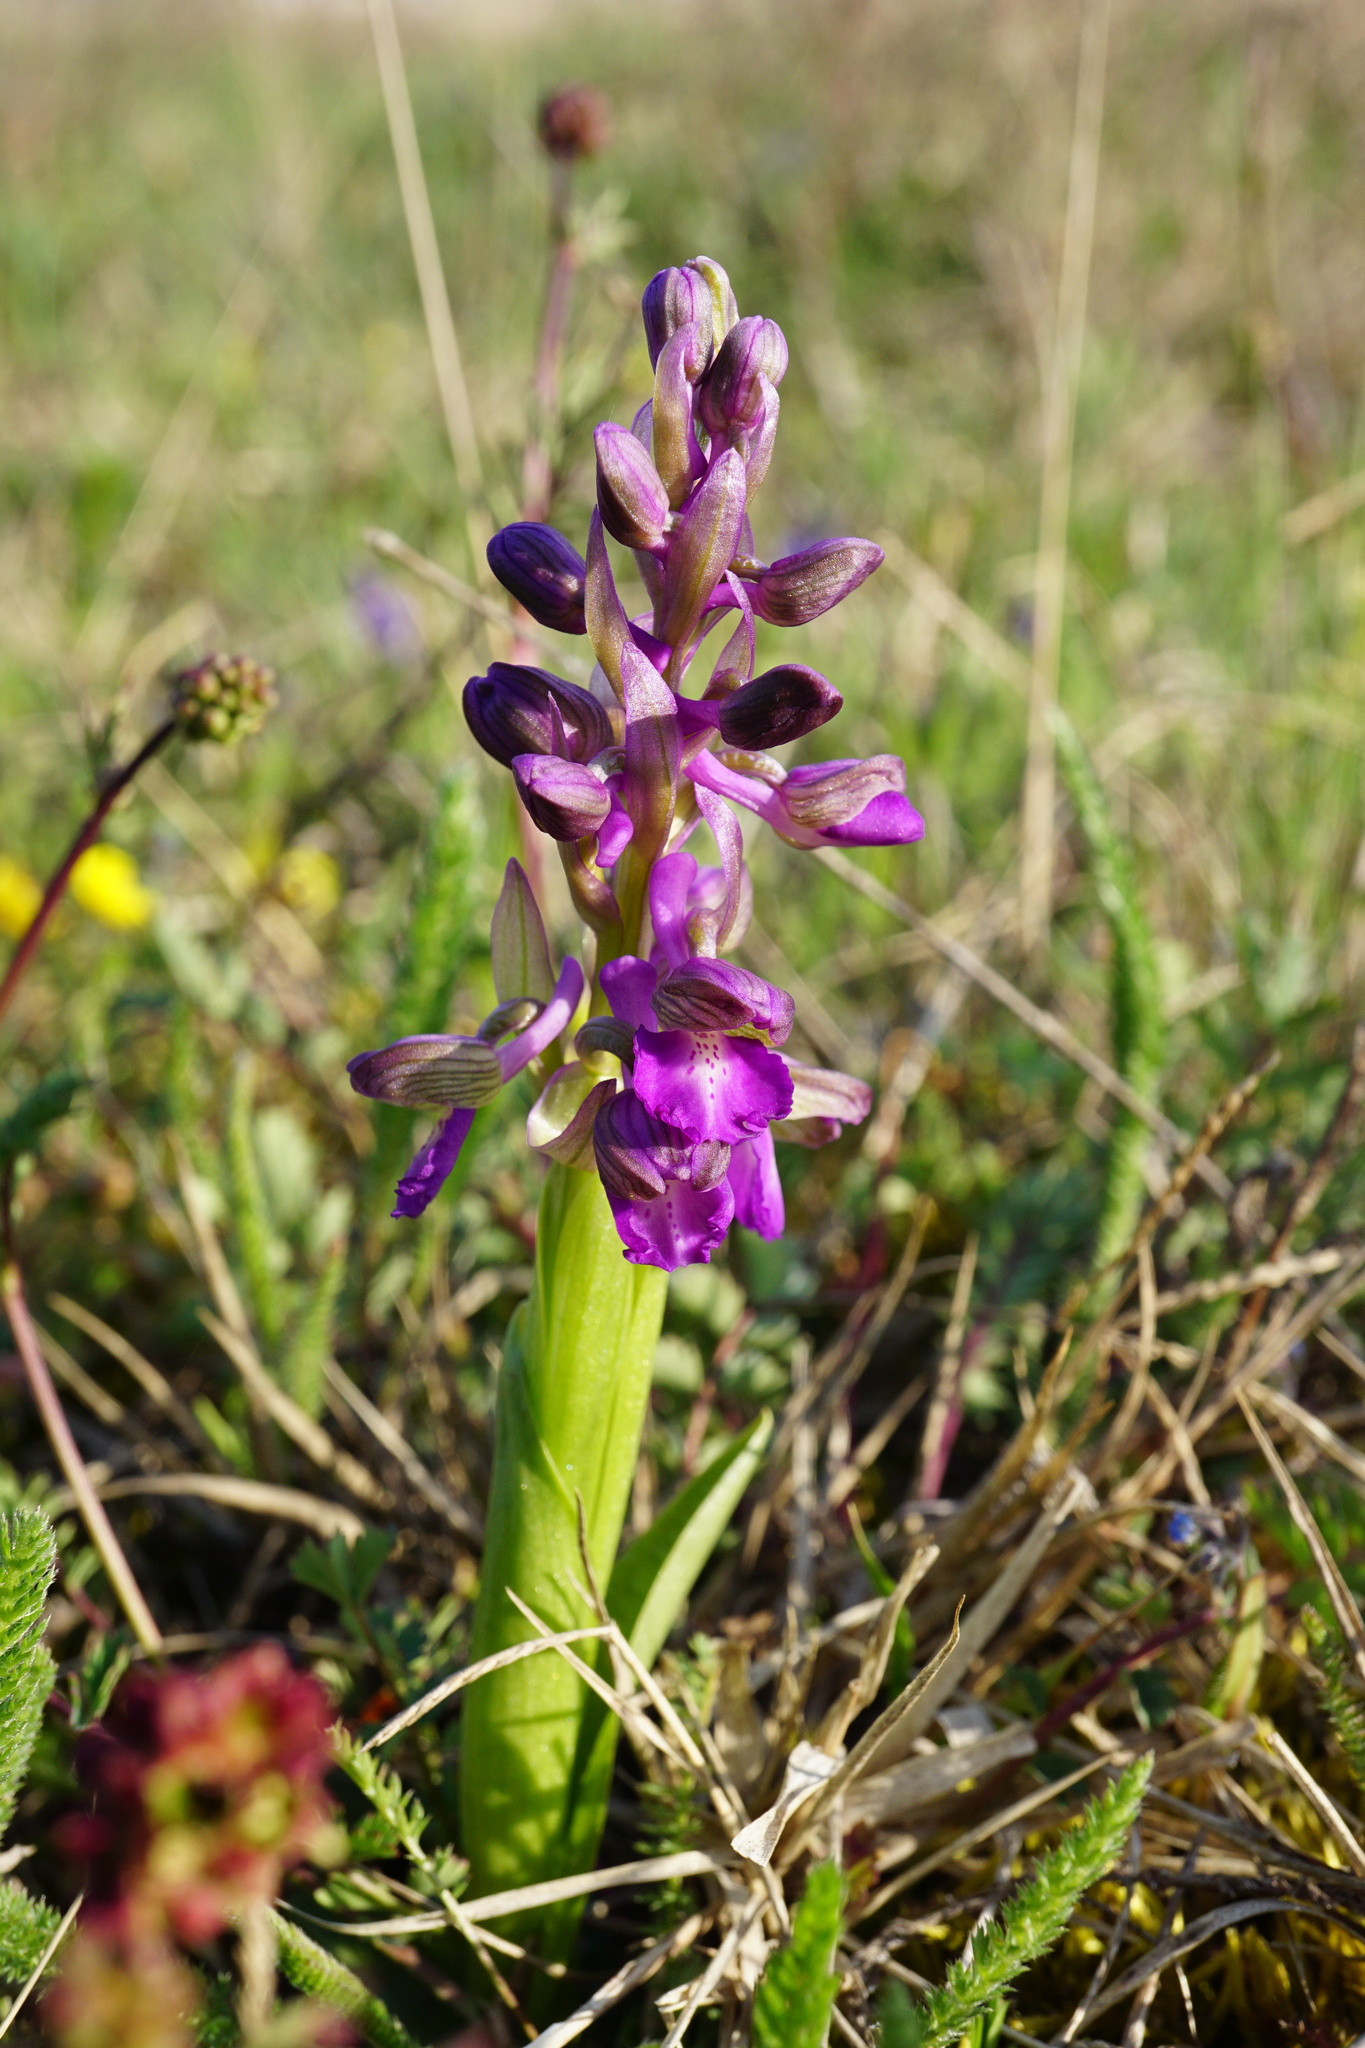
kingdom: Plantae
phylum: Tracheophyta
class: Liliopsida
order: Asparagales
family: Orchidaceae
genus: Anacamptis
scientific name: Anacamptis morio
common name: Green-winged orchid
